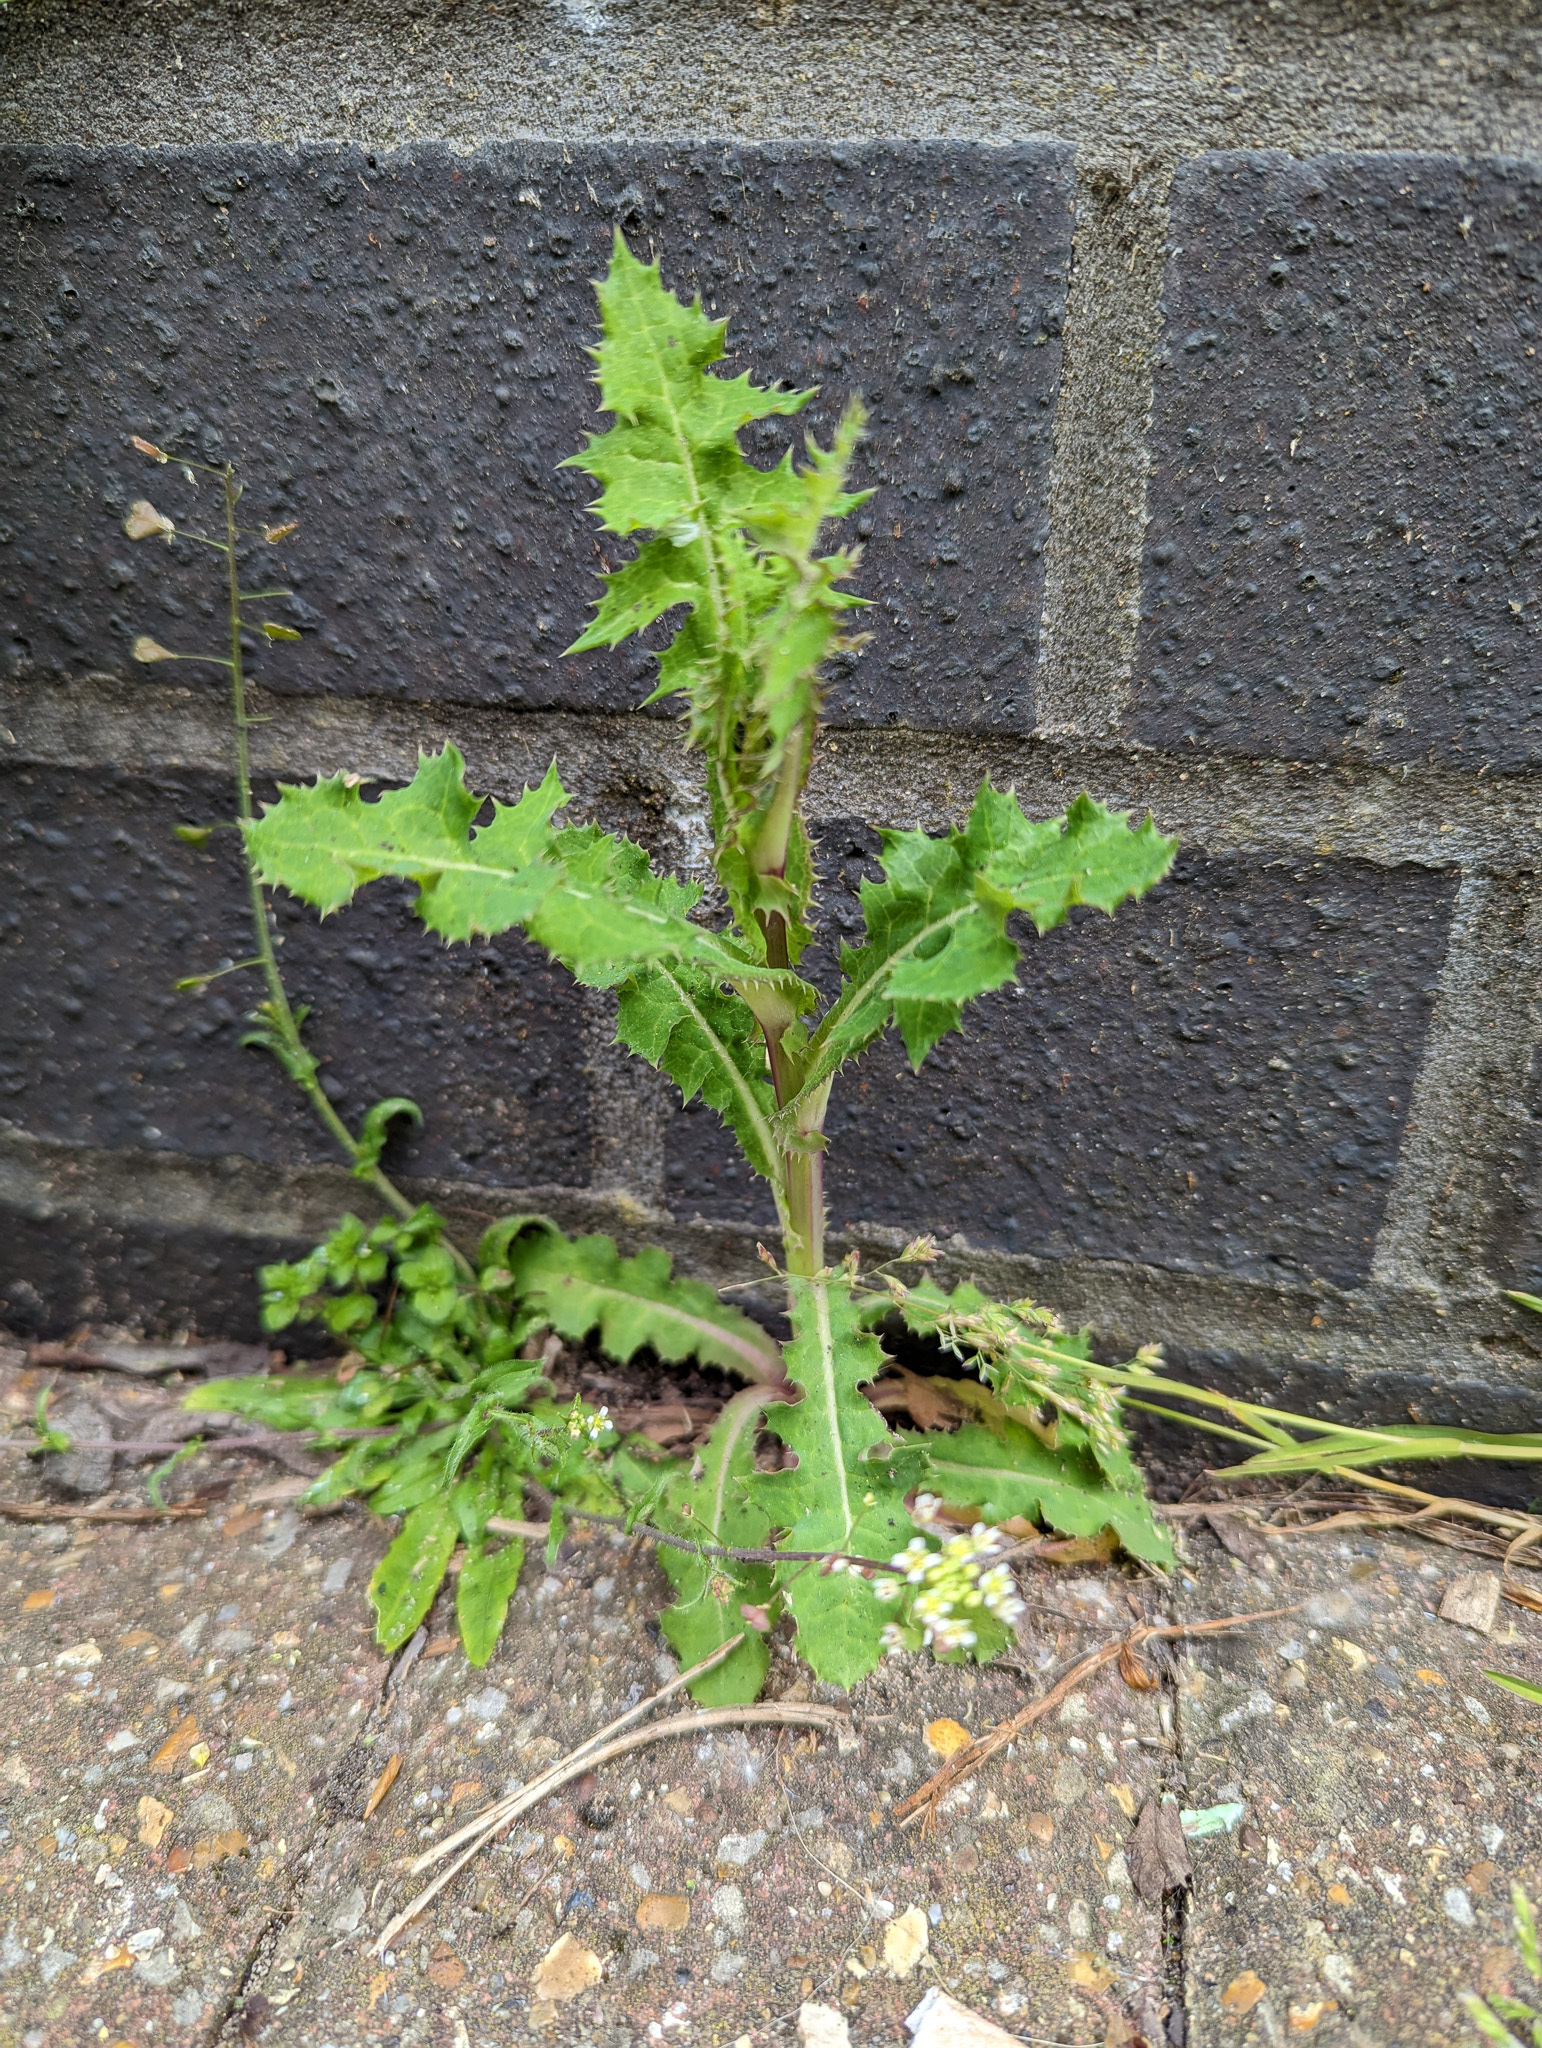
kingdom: Plantae
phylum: Tracheophyta
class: Magnoliopsida
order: Asterales
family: Asteraceae
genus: Sonchus
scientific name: Sonchus asper
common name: Prickly sow-thistle
